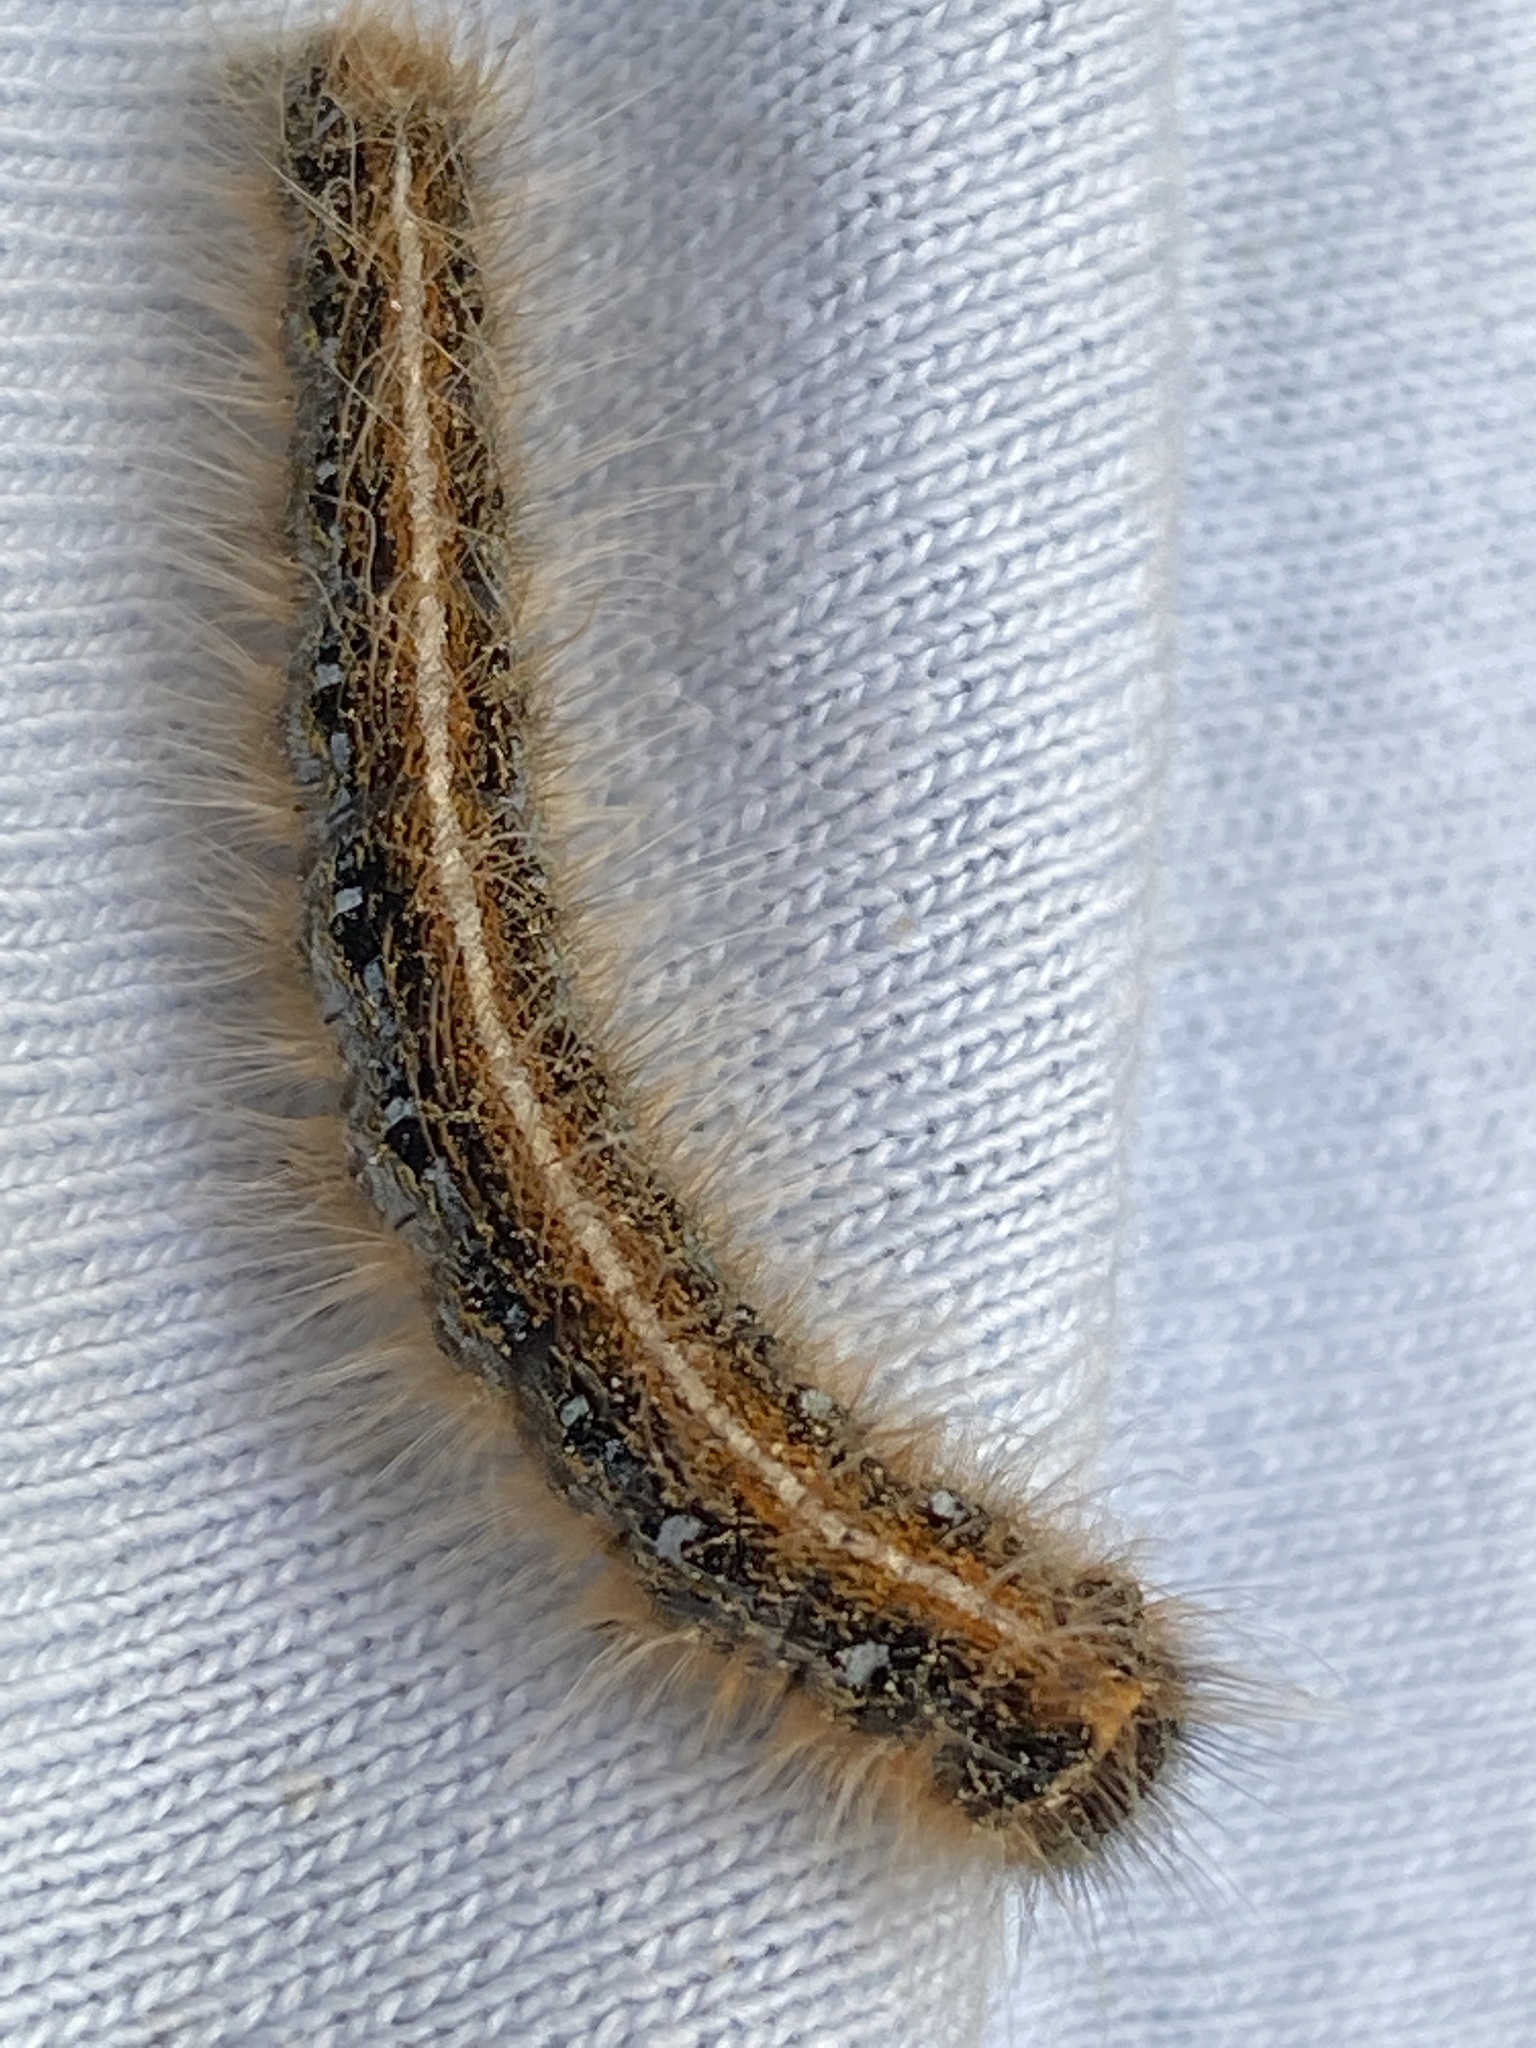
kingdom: Animalia
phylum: Arthropoda
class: Insecta
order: Lepidoptera
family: Lasiocampidae
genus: Malacosoma
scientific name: Malacosoma americana
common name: Eastern tent caterpillar moth
